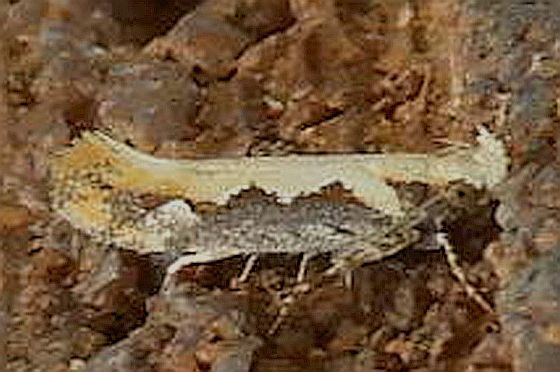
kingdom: Animalia
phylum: Arthropoda
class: Insecta
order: Lepidoptera
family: Gelechiidae
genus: Ornativalva
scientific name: Ornativalva erubescens
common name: Moth
